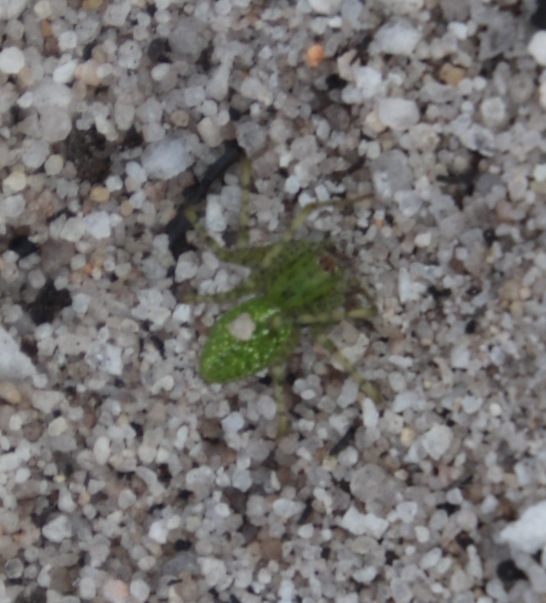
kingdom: Animalia
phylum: Arthropoda
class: Arachnida
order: Araneae
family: Oxyopidae
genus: Peucetia
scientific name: Peucetia viridis
